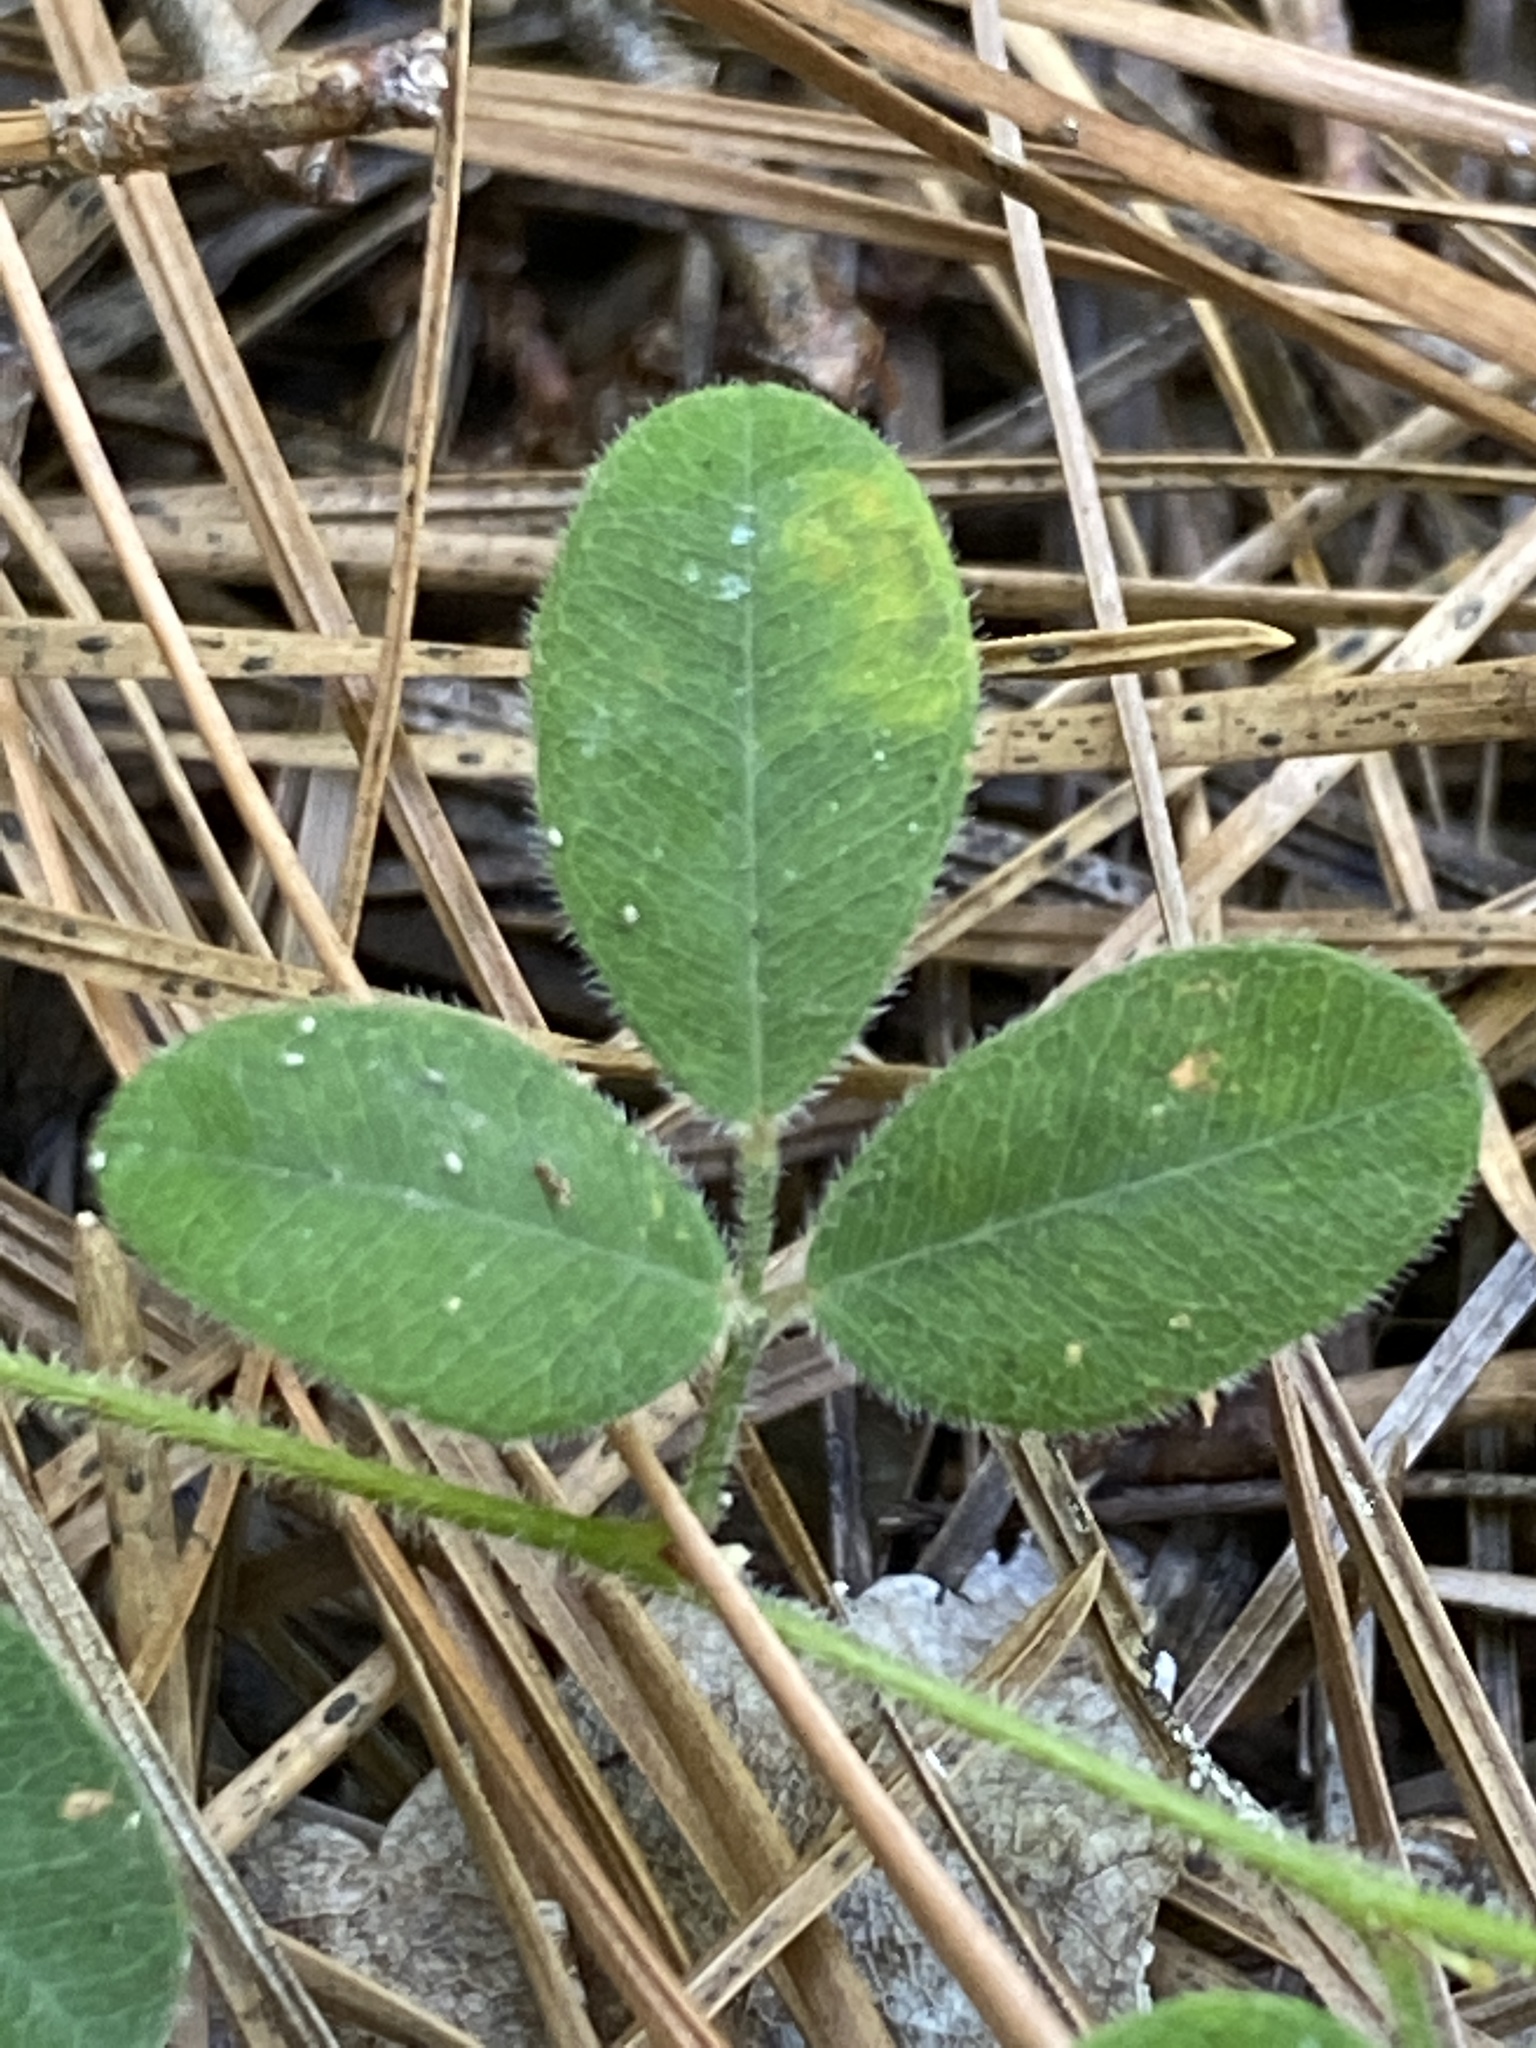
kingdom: Plantae
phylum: Tracheophyta
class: Magnoliopsida
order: Fabales
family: Fabaceae
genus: Lespedeza
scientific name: Lespedeza procumbens
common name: Downy trailing bush-clover
